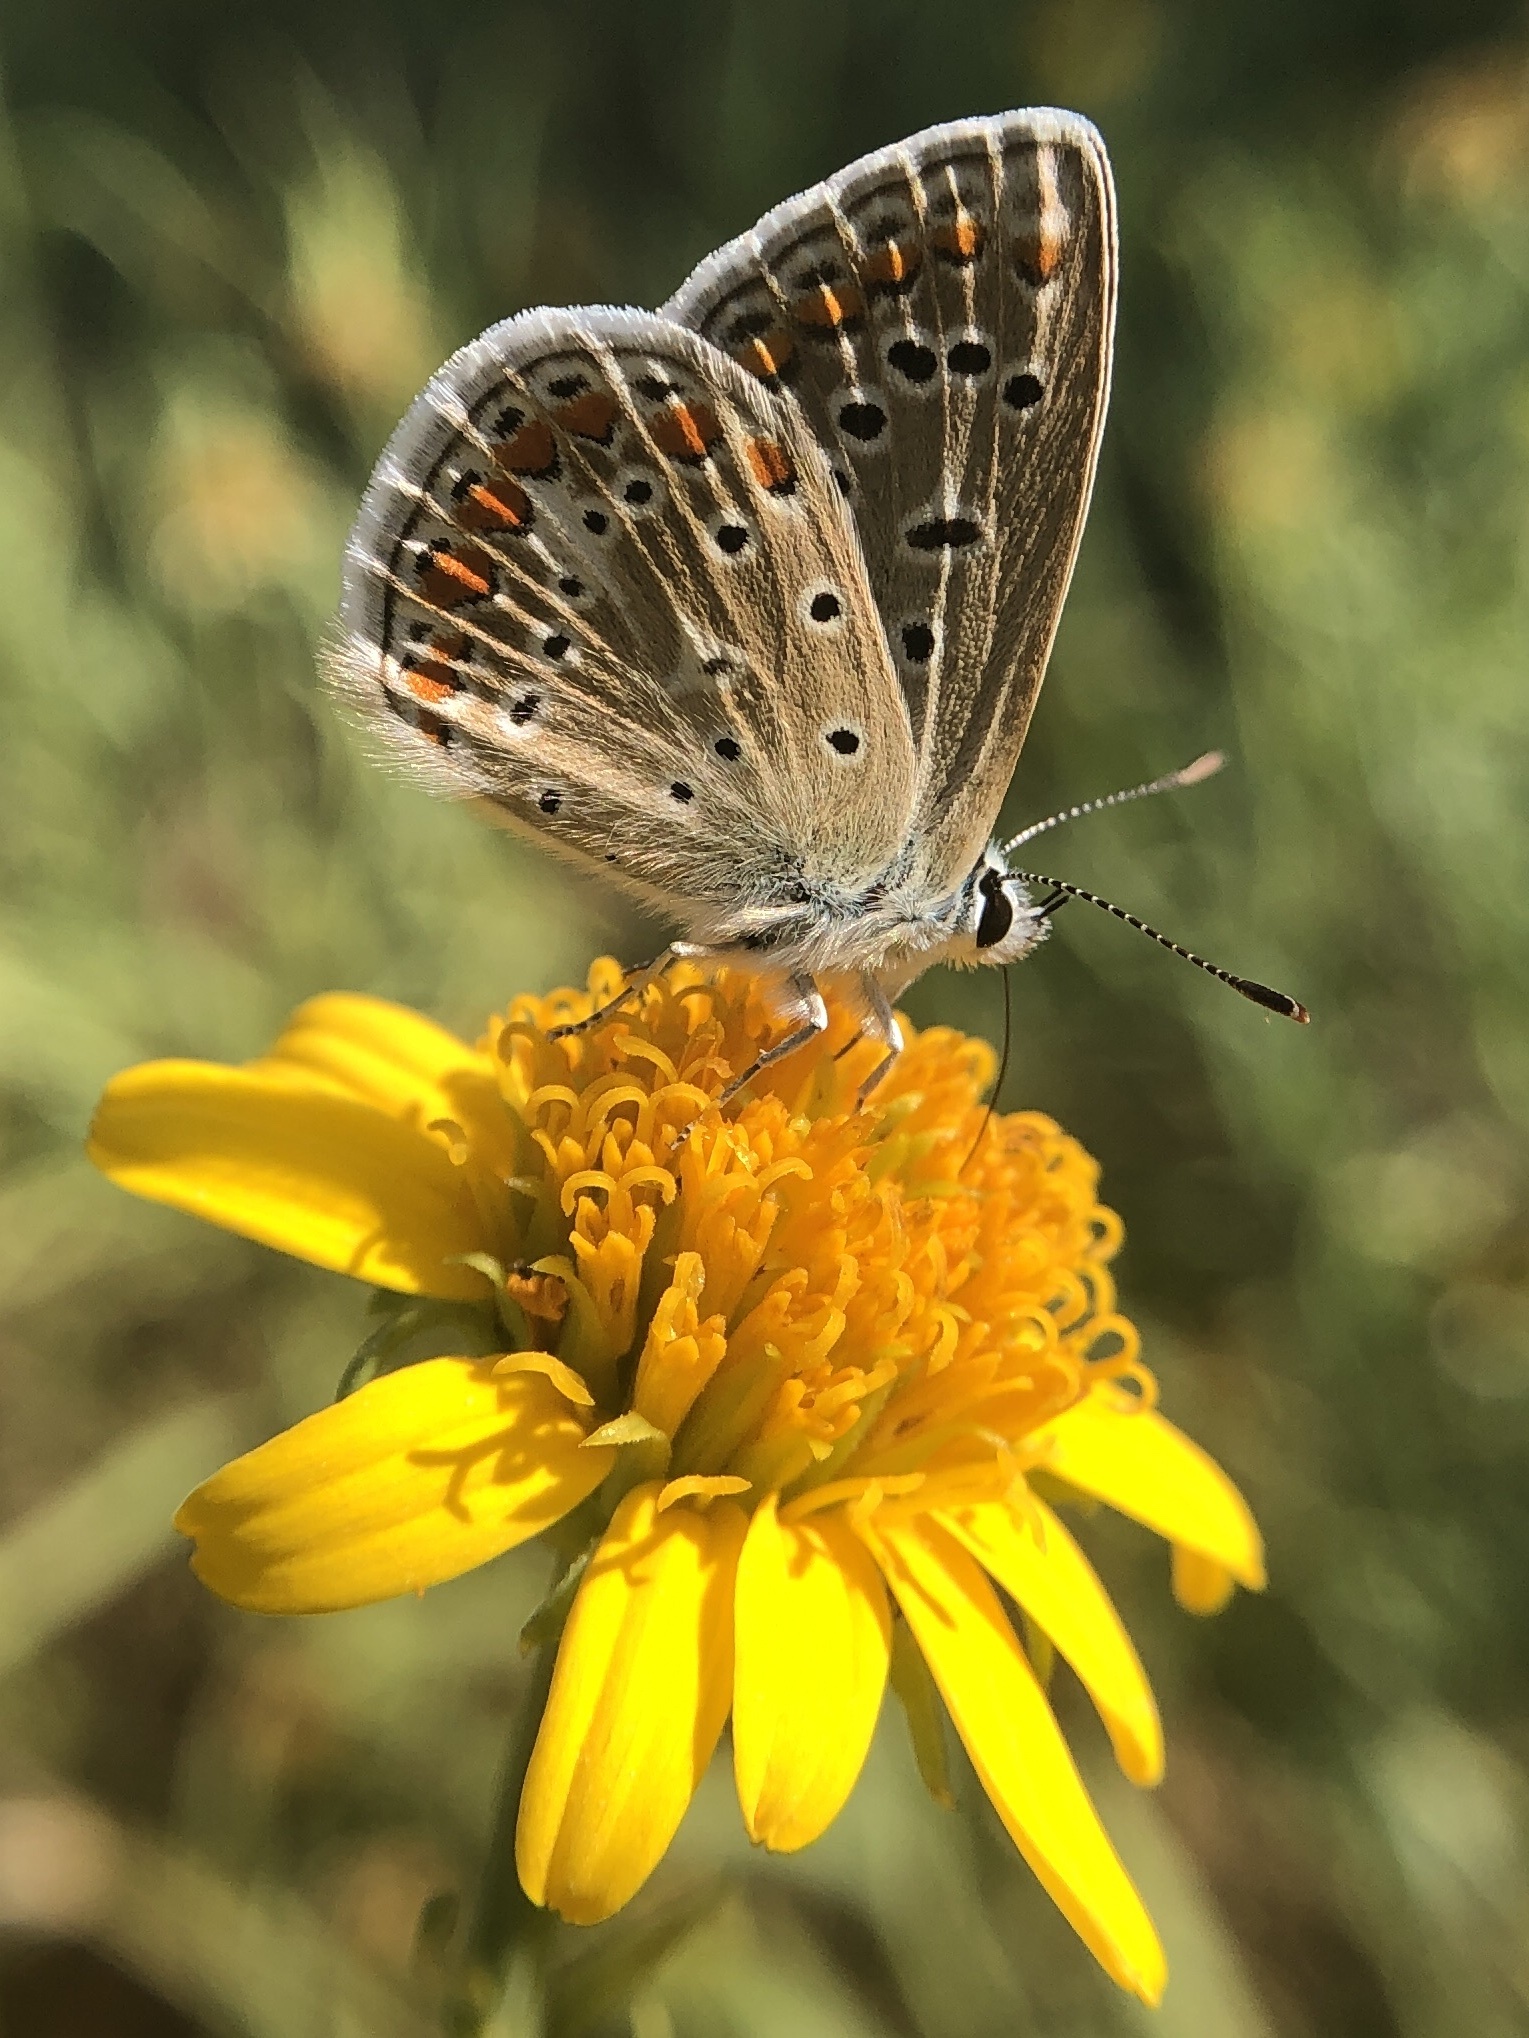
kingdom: Animalia
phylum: Arthropoda
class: Insecta
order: Lepidoptera
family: Lycaenidae
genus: Polyommatus
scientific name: Polyommatus icarus
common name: Common blue
